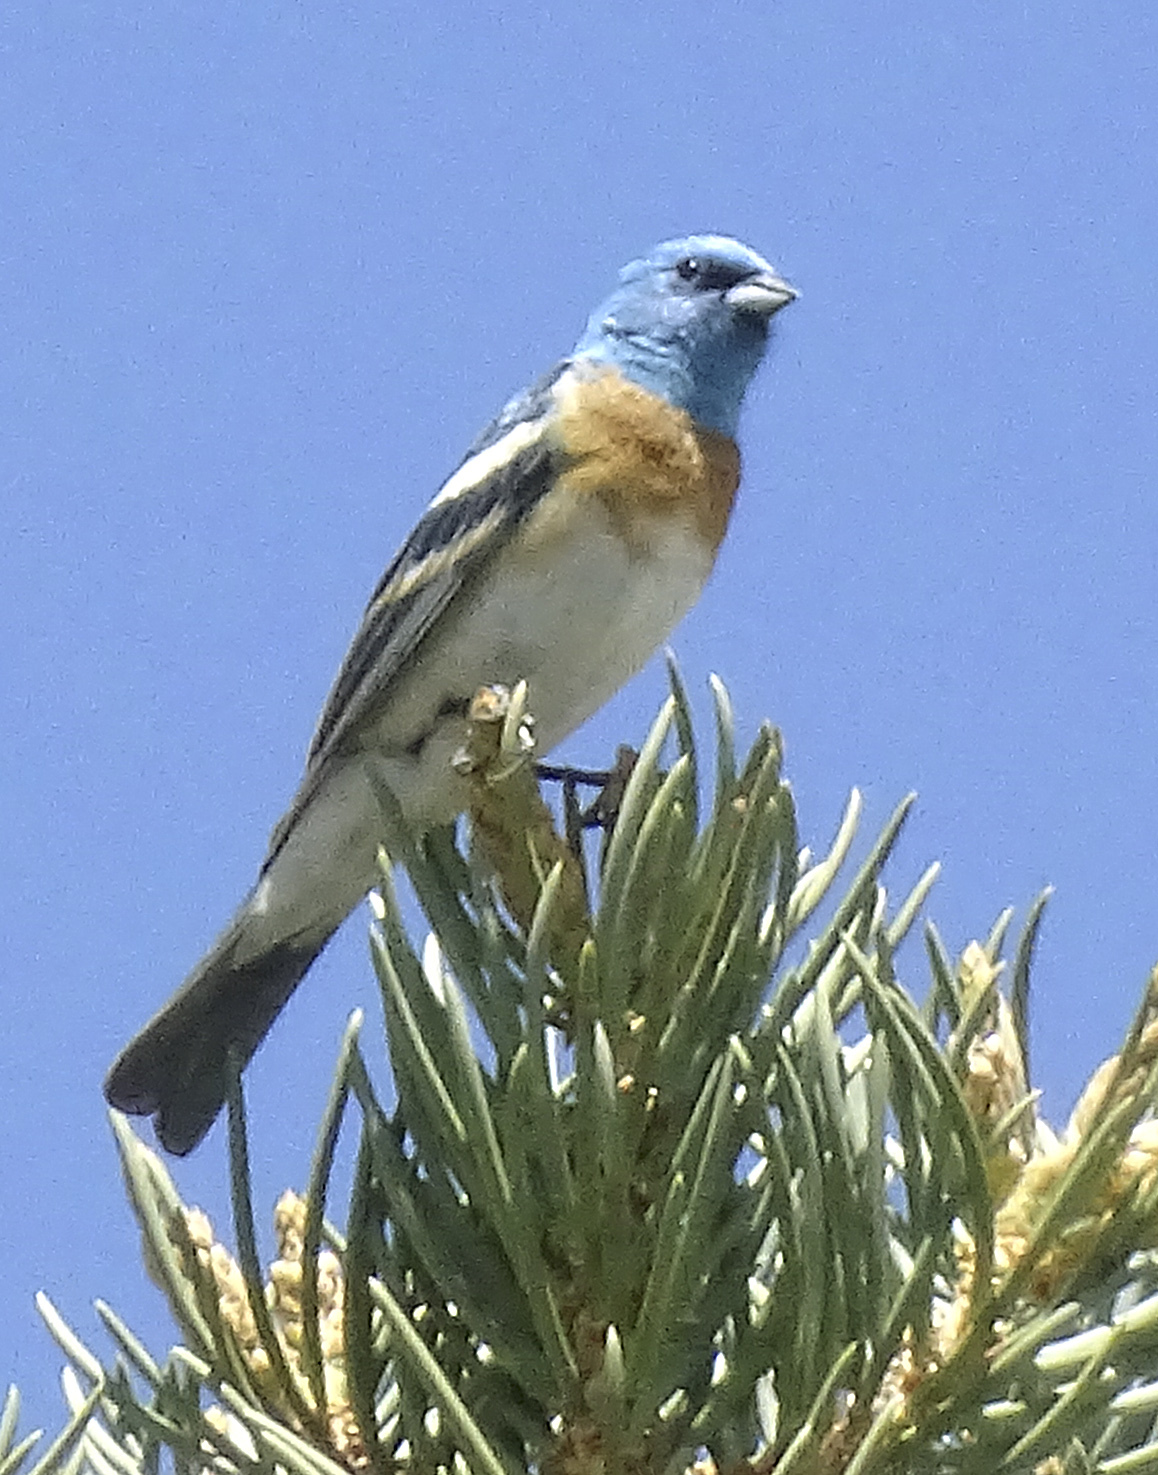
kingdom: Animalia
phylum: Chordata
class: Aves
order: Passeriformes
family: Cardinalidae
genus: Passerina
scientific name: Passerina amoena
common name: Lazuli bunting
